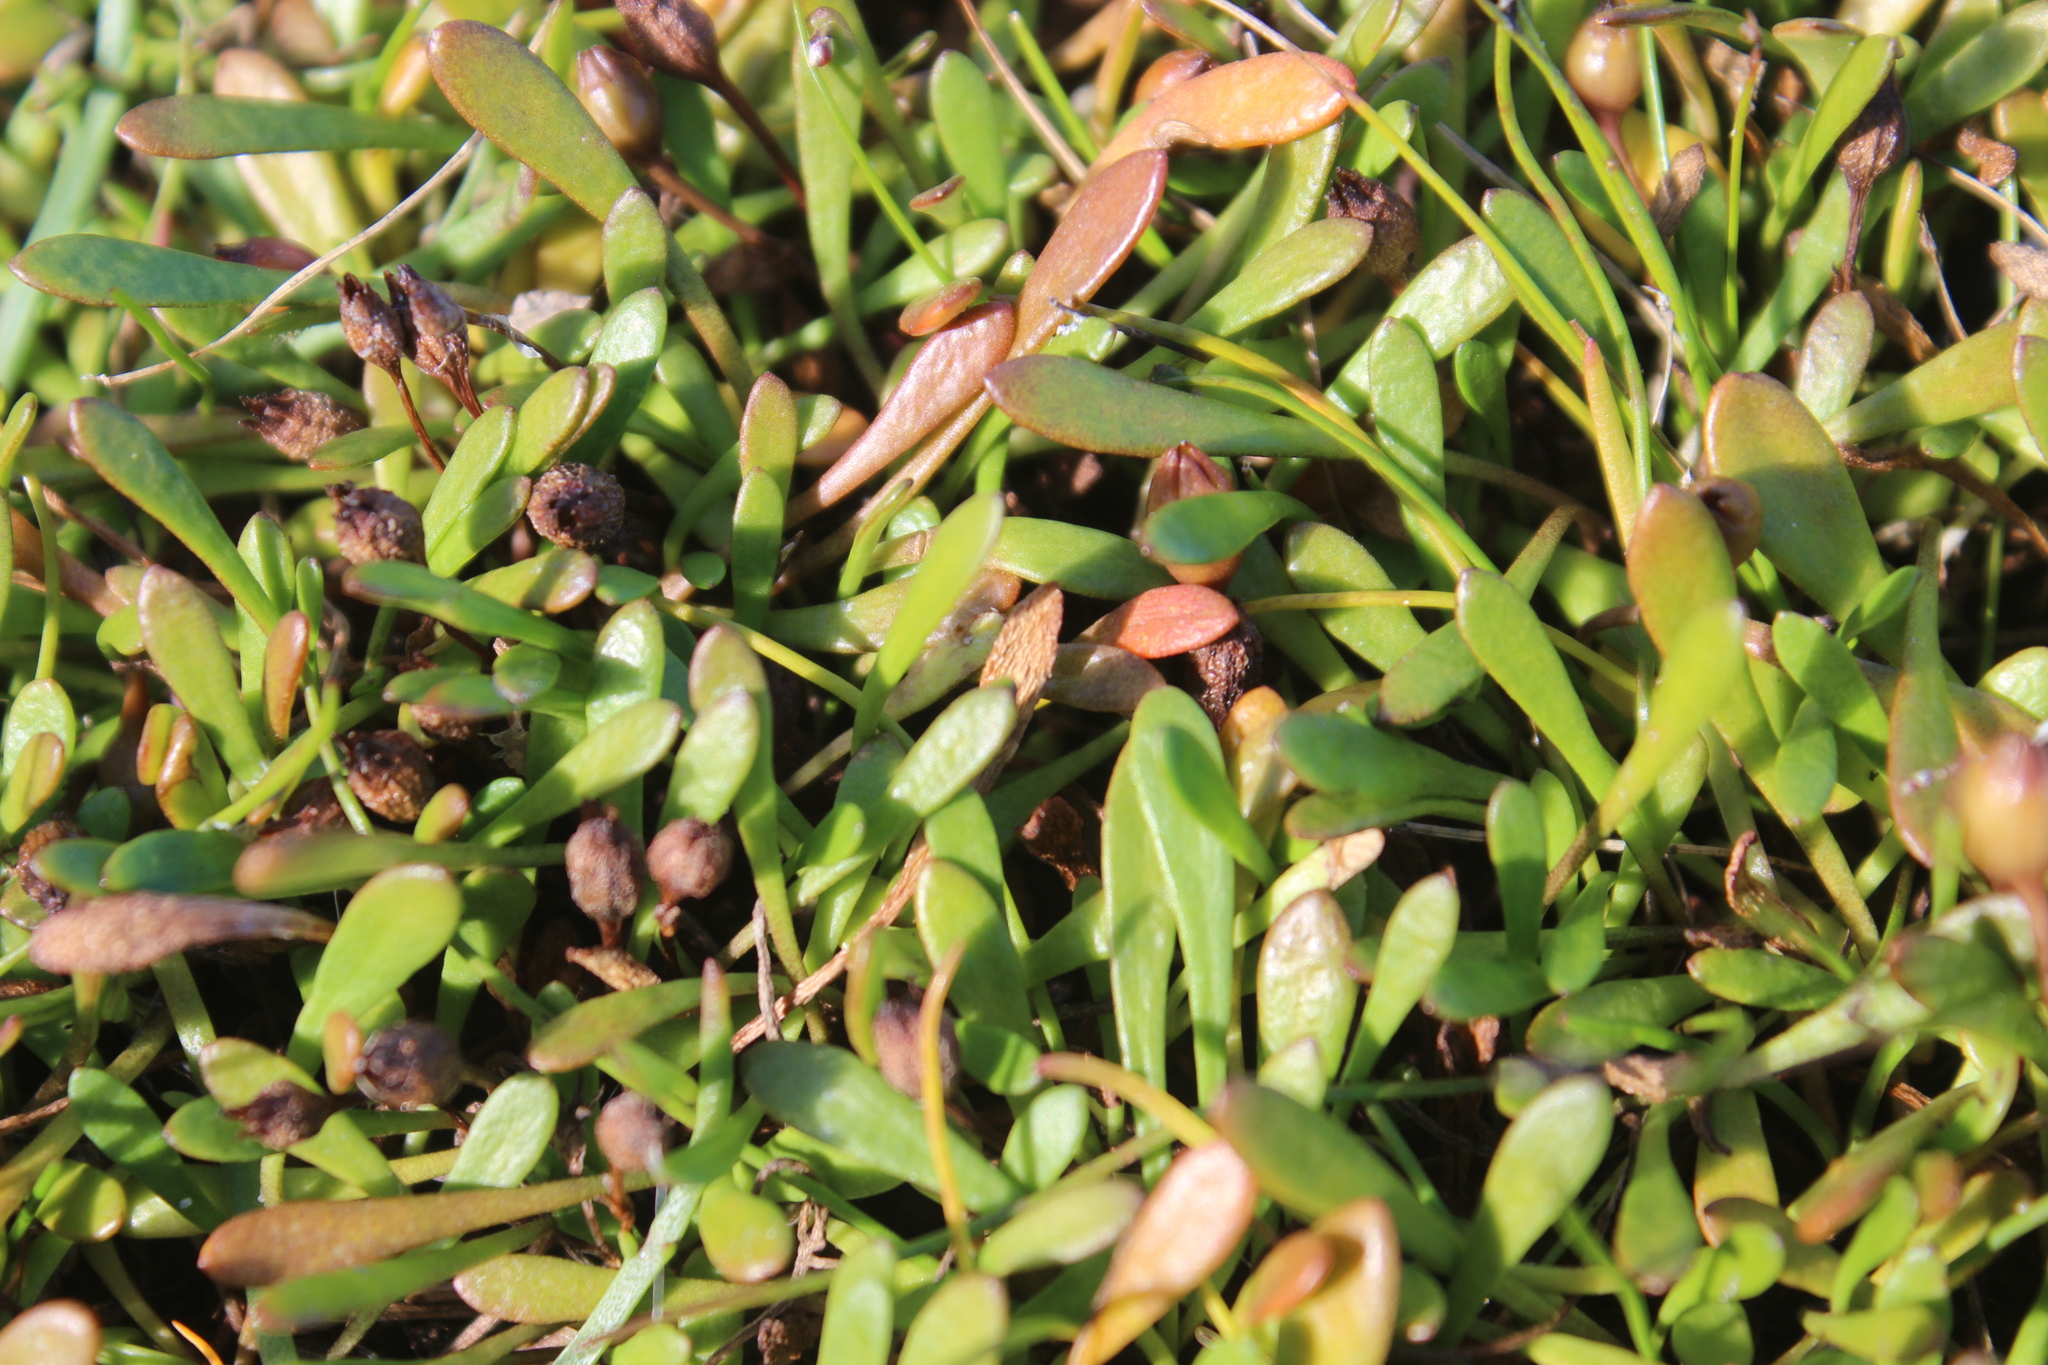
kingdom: Plantae
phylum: Tracheophyta
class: Magnoliopsida
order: Asterales
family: Goodeniaceae
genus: Goodenia
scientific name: Goodenia radicans
